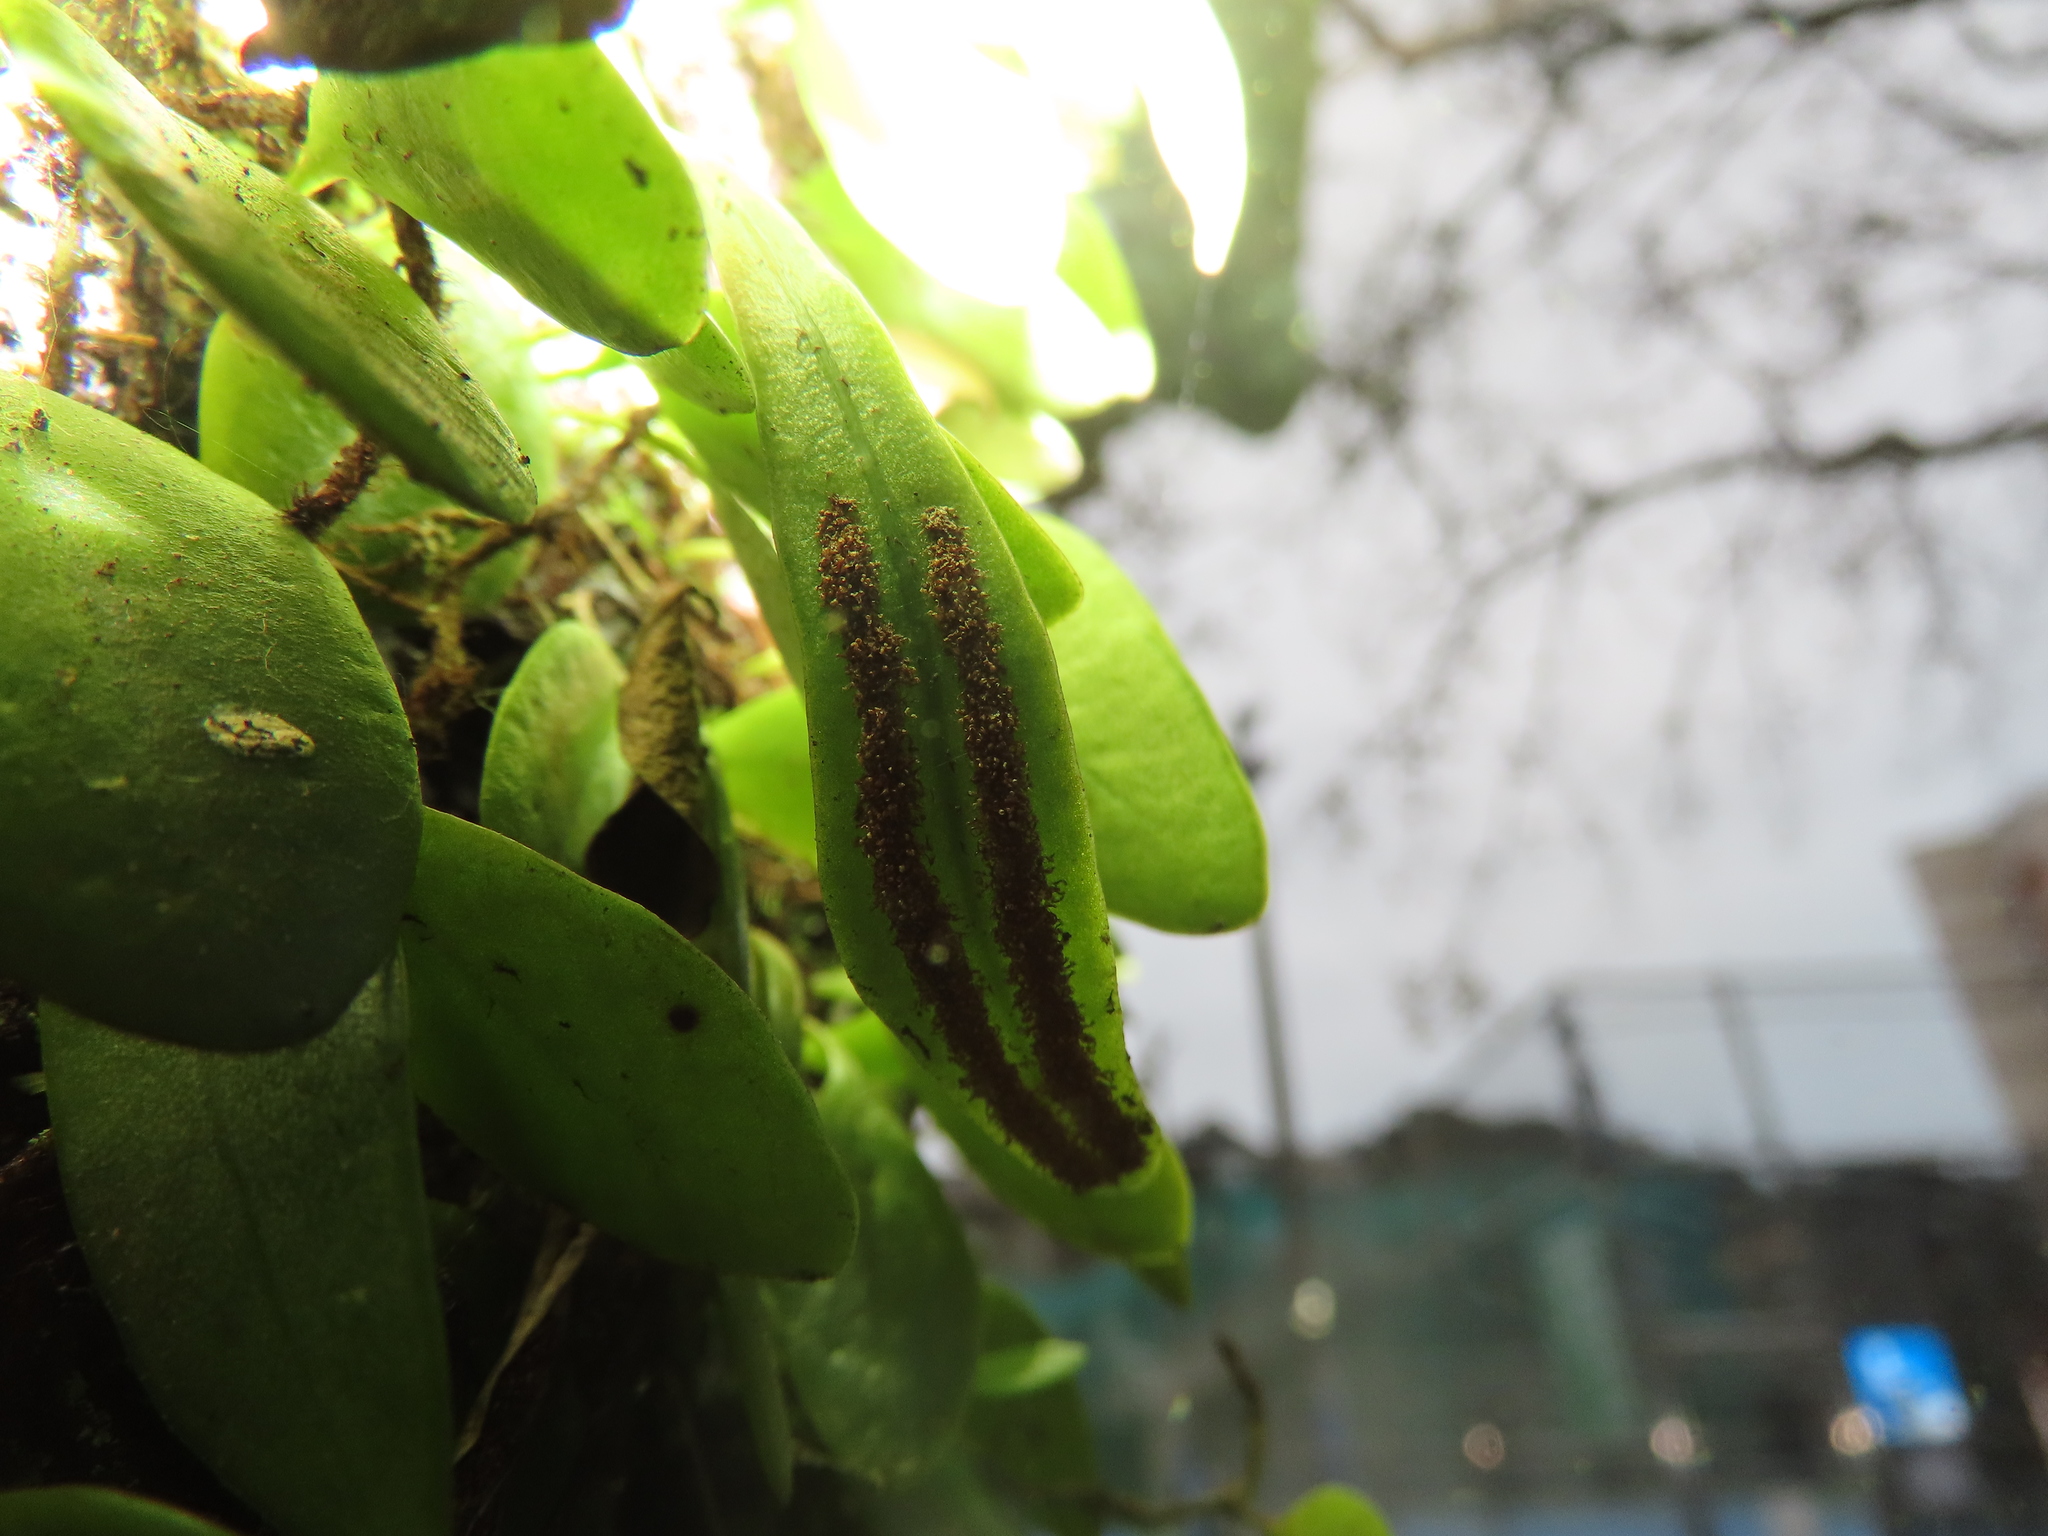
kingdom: Plantae
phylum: Tracheophyta
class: Polypodiopsida
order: Polypodiales
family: Polypodiaceae
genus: Lepisorus
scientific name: Lepisorus microphyllus
